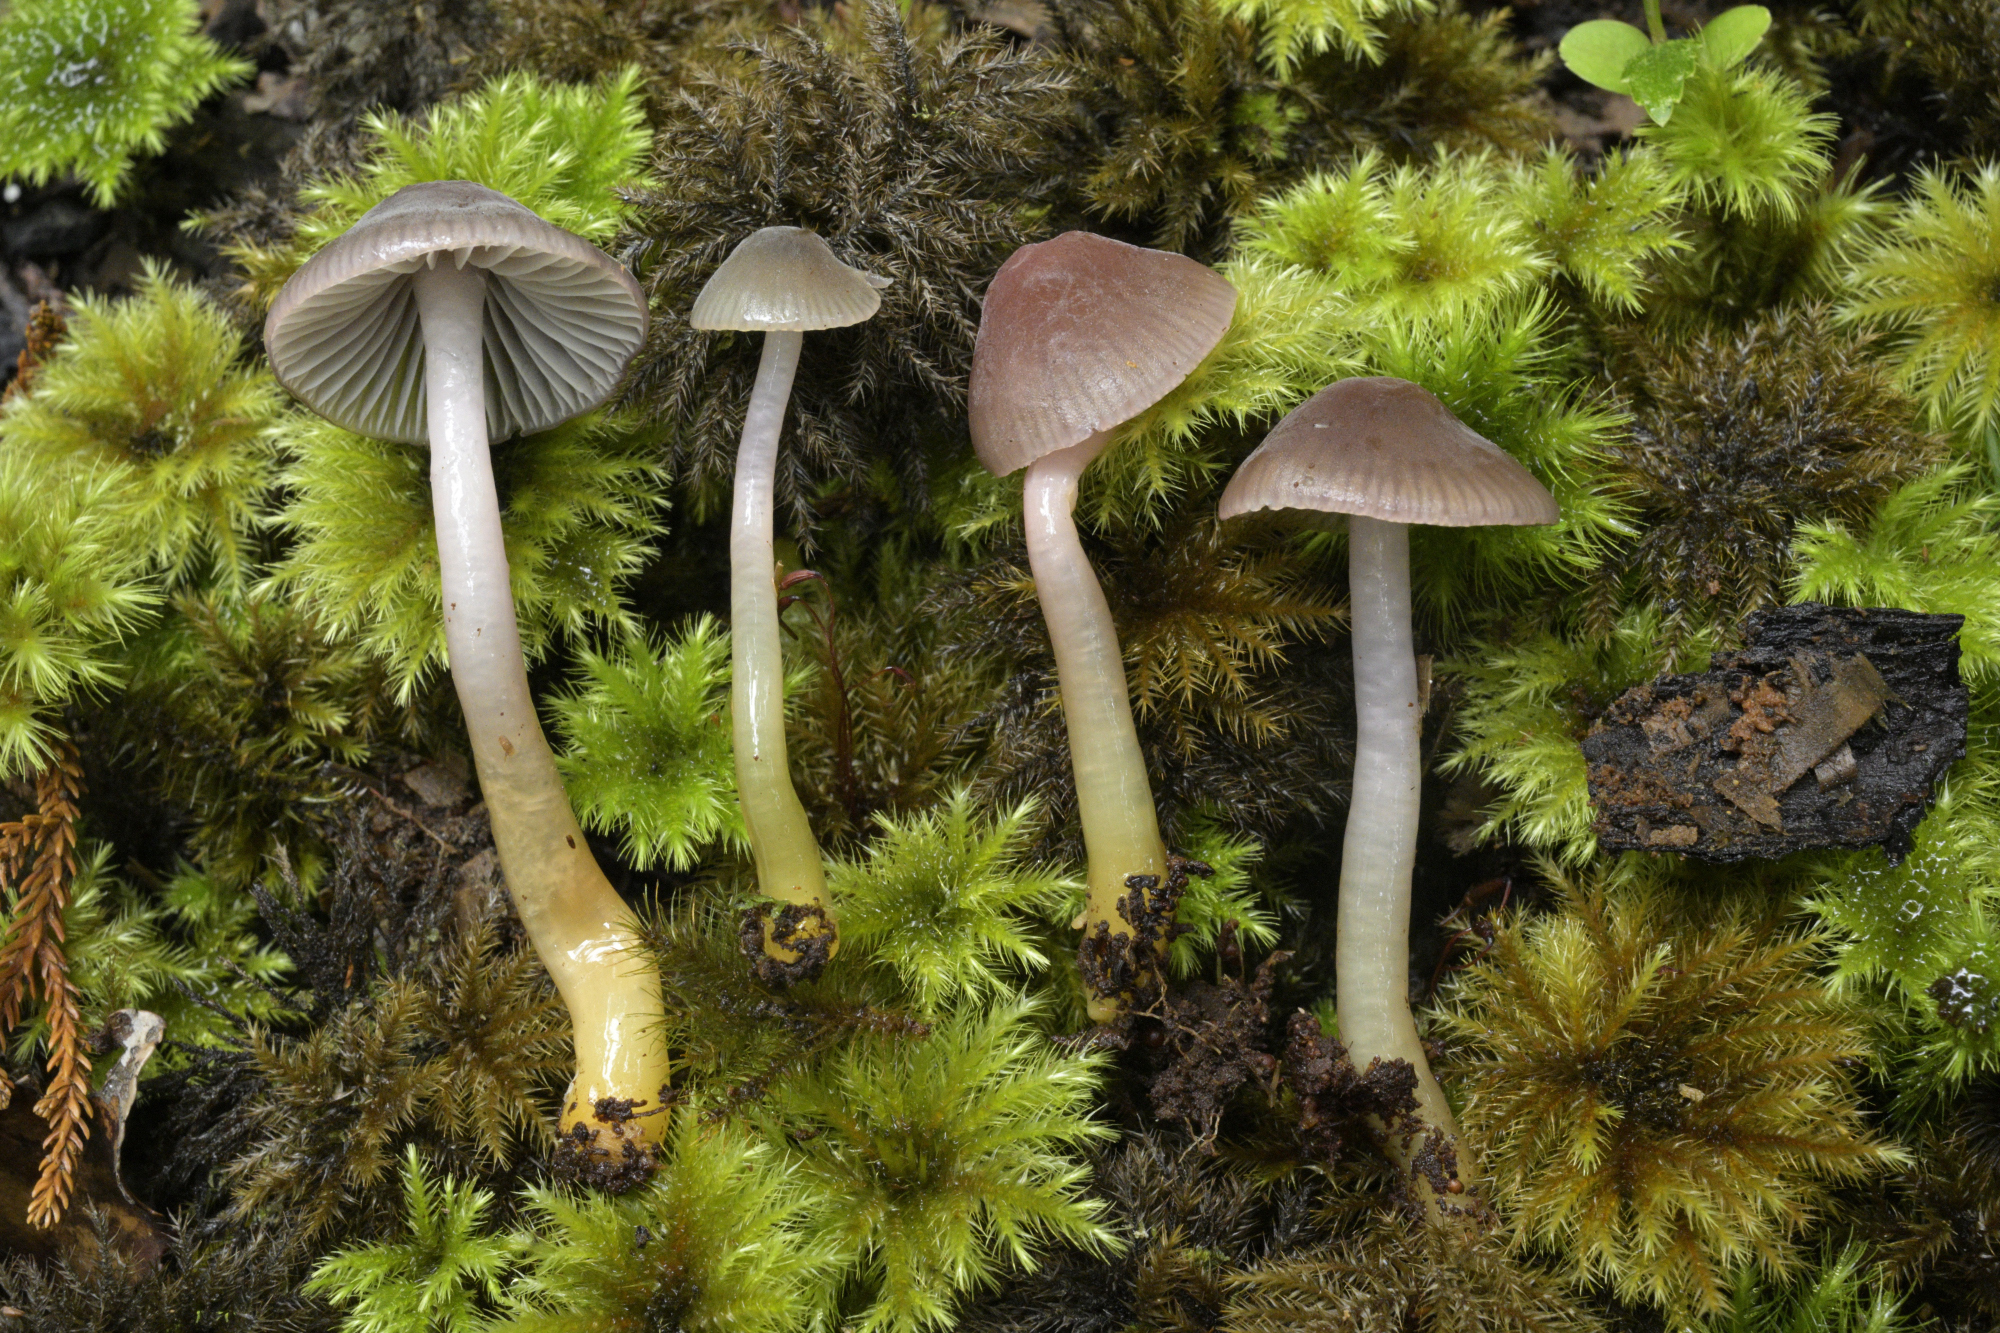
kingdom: Fungi
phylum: Basidiomycota
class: Agaricomycetes
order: Agaricales
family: Hygrophoraceae
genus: Hygrocybe
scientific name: Hygrocybe lilacinoides
